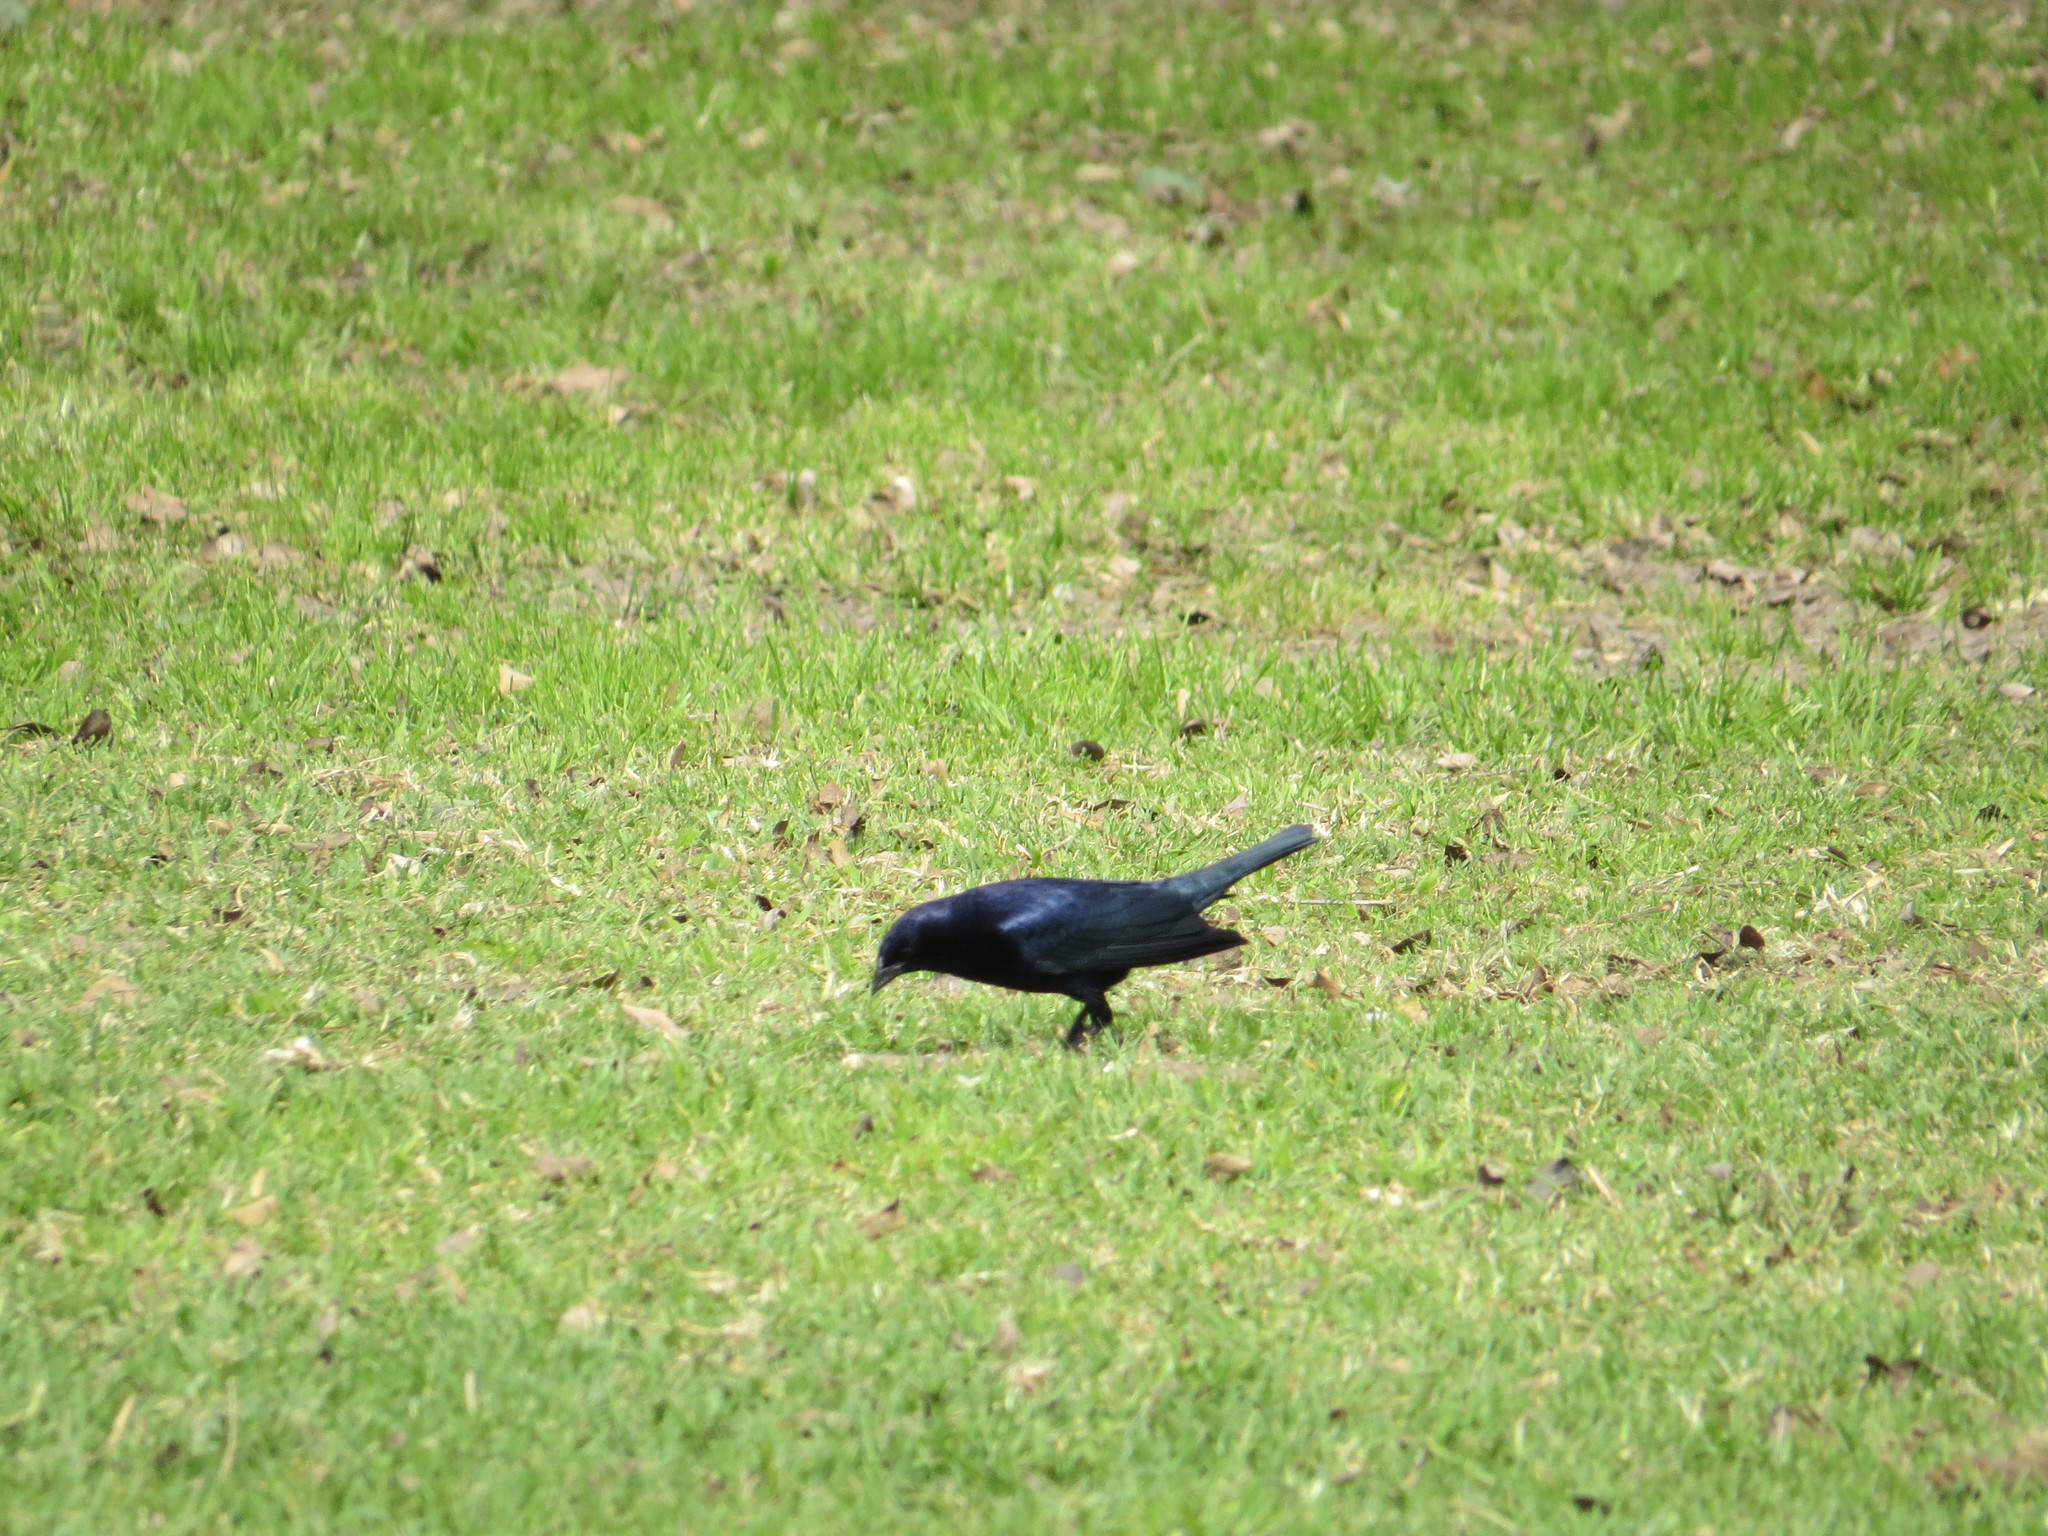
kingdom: Animalia
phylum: Chordata
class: Aves
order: Passeriformes
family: Icteridae
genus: Molothrus
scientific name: Molothrus bonariensis
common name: Shiny cowbird
